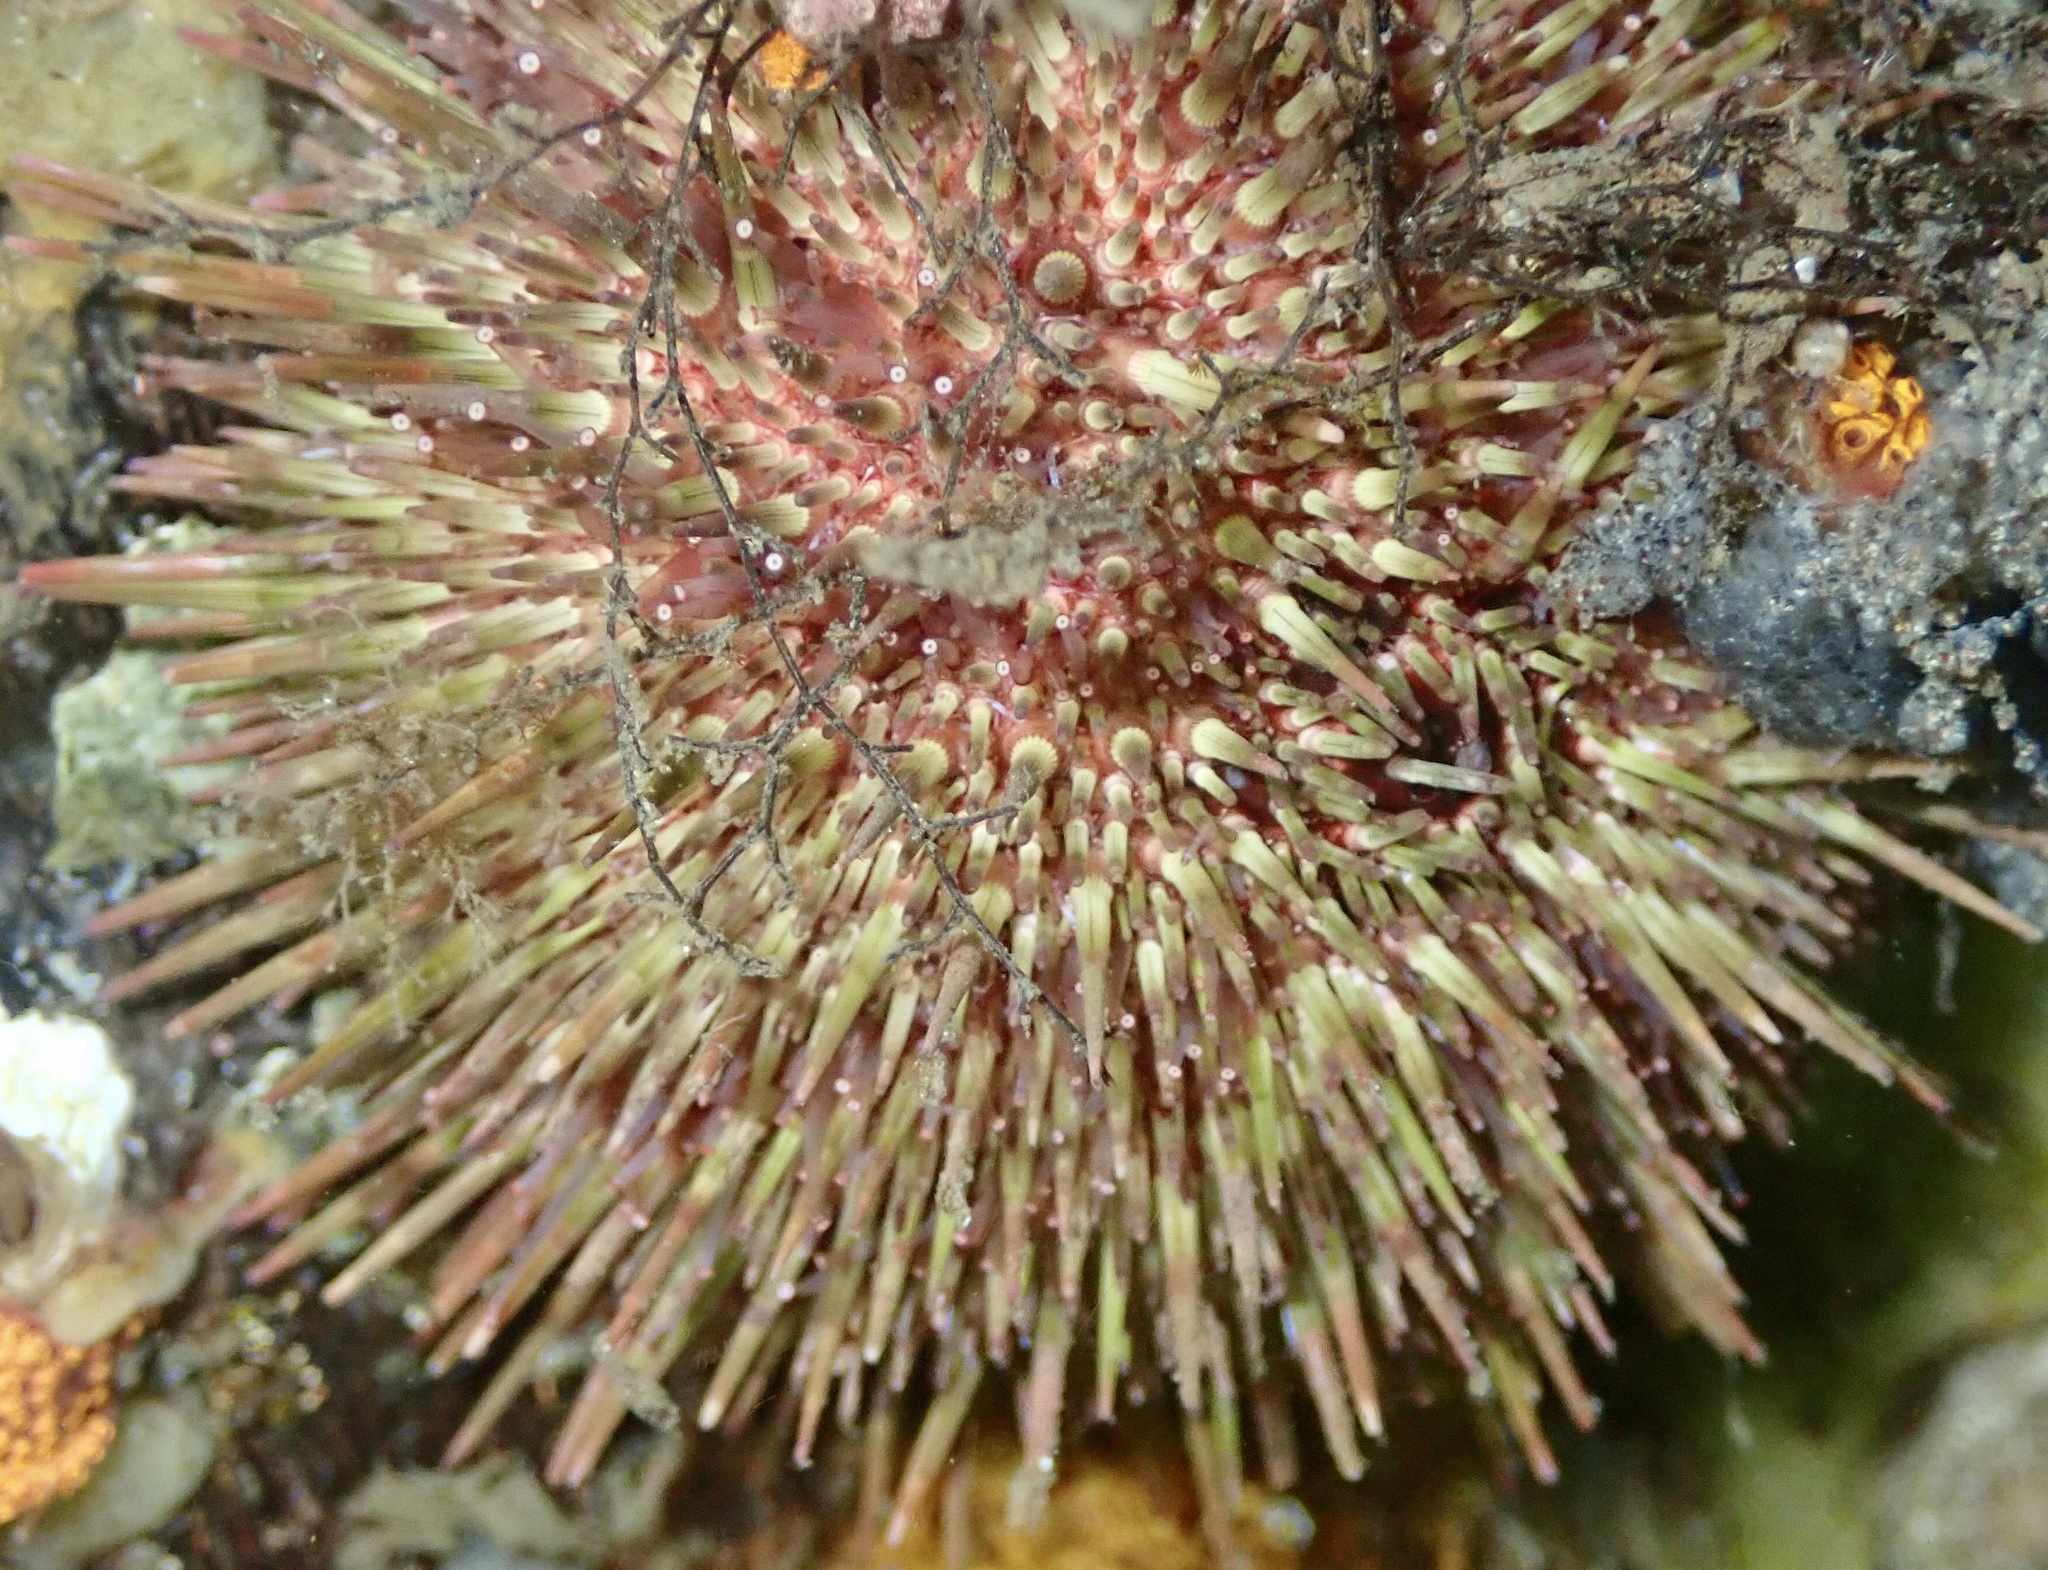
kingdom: Animalia
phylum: Echinodermata
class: Echinoidea
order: Camarodonta
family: Parechinidae
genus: Psammechinus
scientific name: Psammechinus miliaris
